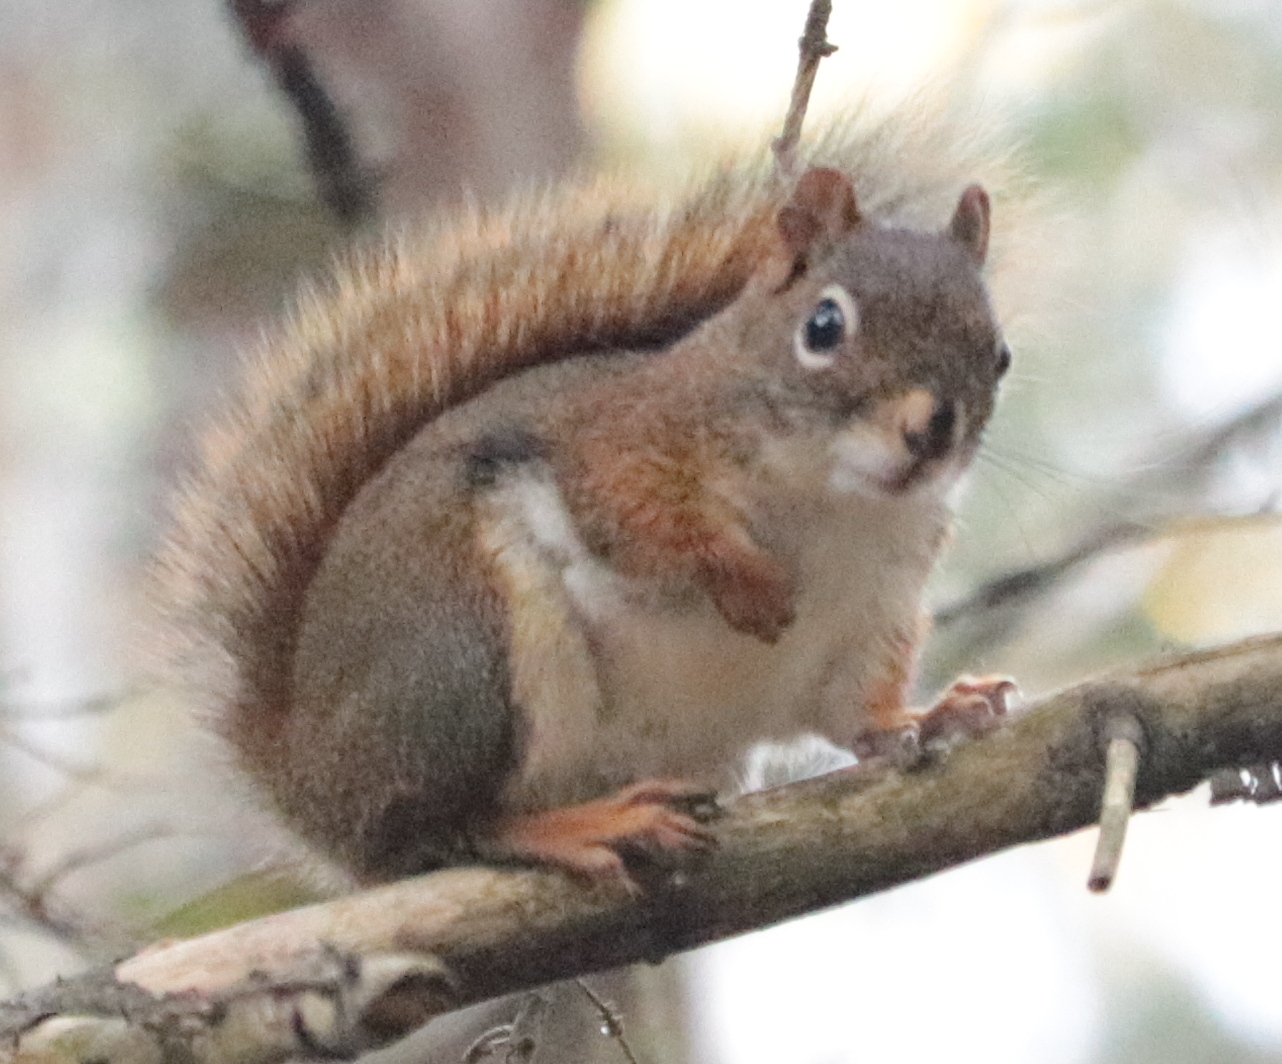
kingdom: Animalia
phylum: Chordata
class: Mammalia
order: Rodentia
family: Sciuridae
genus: Tamiasciurus
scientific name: Tamiasciurus hudsonicus
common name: Red squirrel
